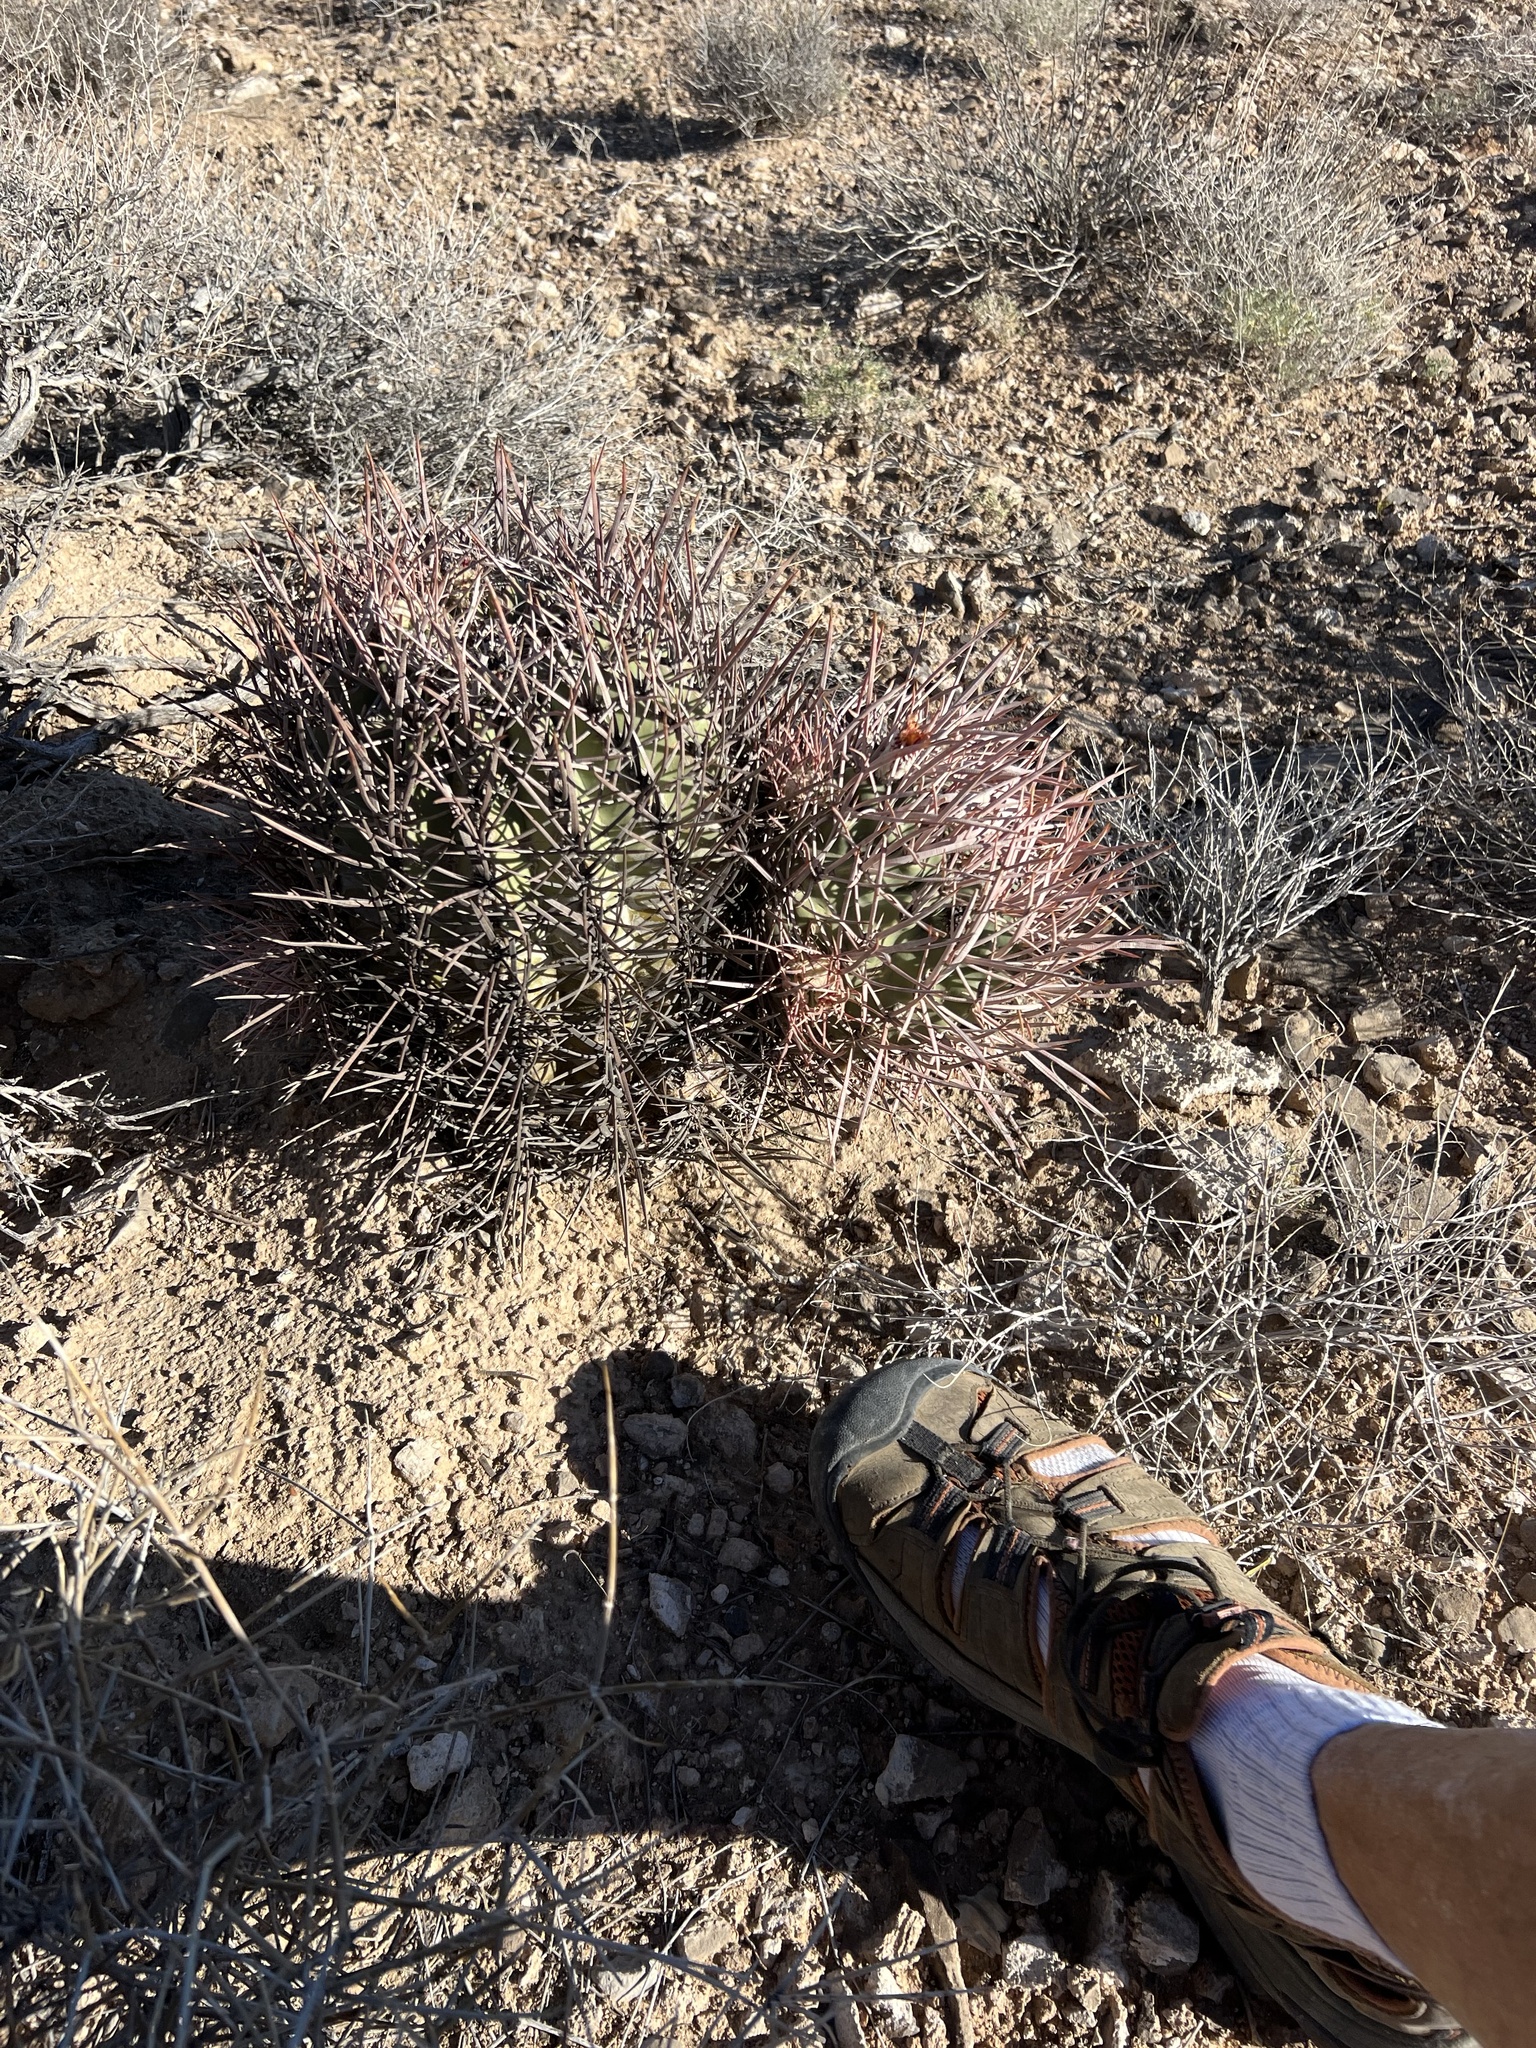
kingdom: Plantae
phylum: Tracheophyta
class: Magnoliopsida
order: Caryophyllales
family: Cactaceae
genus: Echinocactus
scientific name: Echinocactus polycephalus
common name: Cottontop cactus
